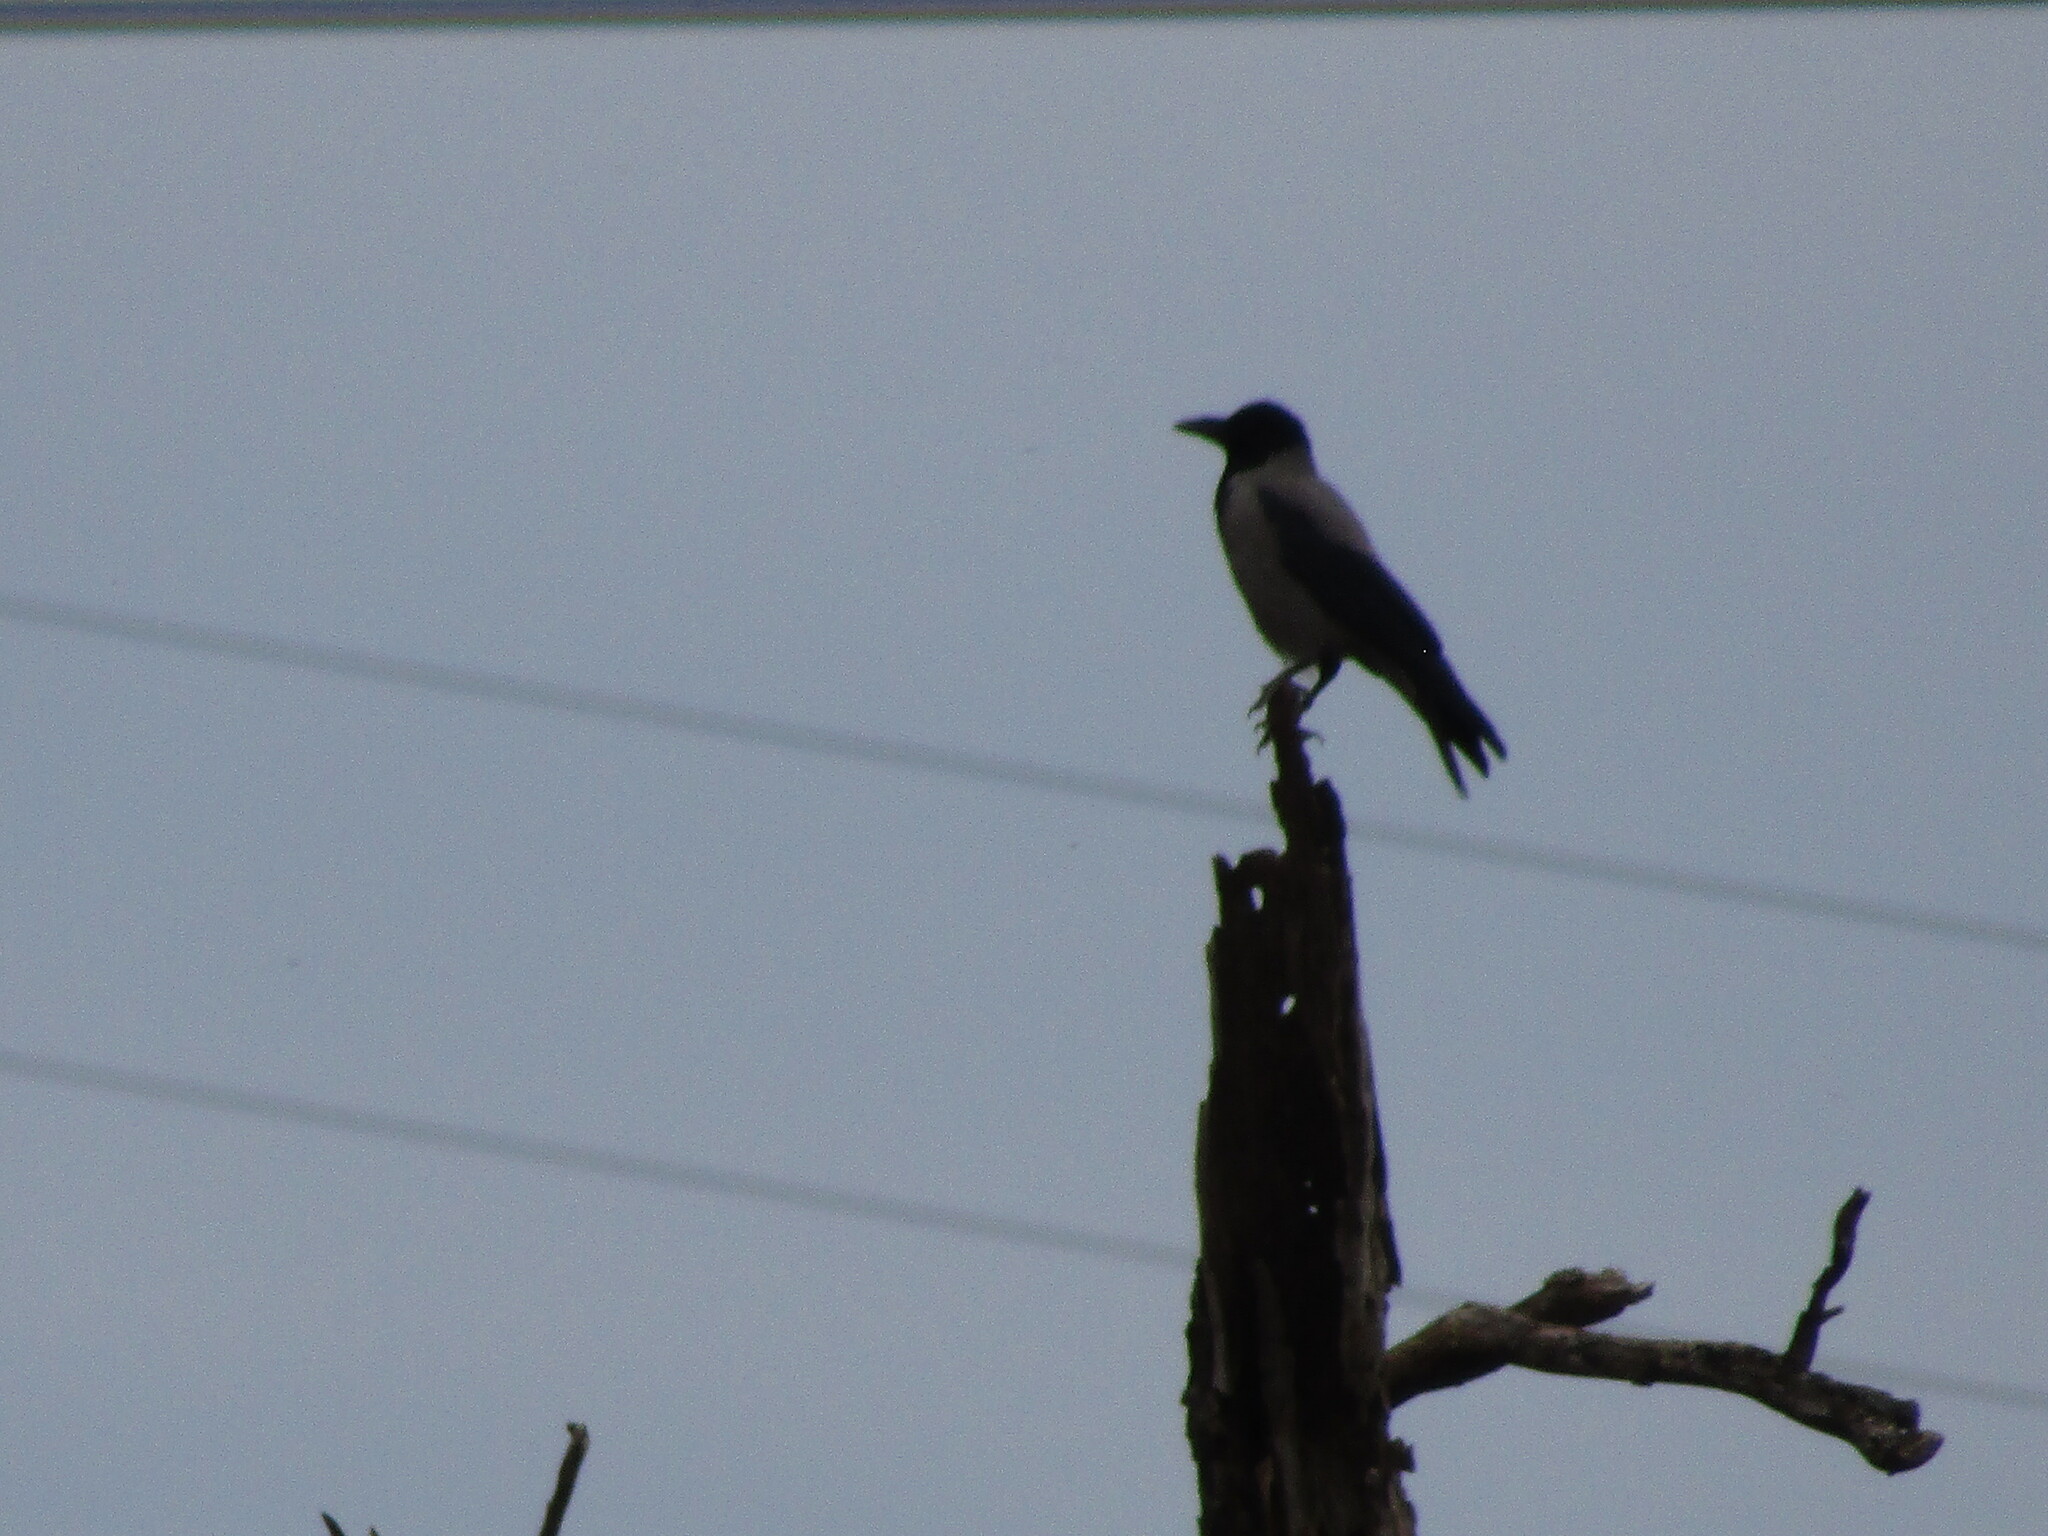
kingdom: Animalia
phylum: Chordata
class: Aves
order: Passeriformes
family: Corvidae
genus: Corvus
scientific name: Corvus cornix
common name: Hooded crow
